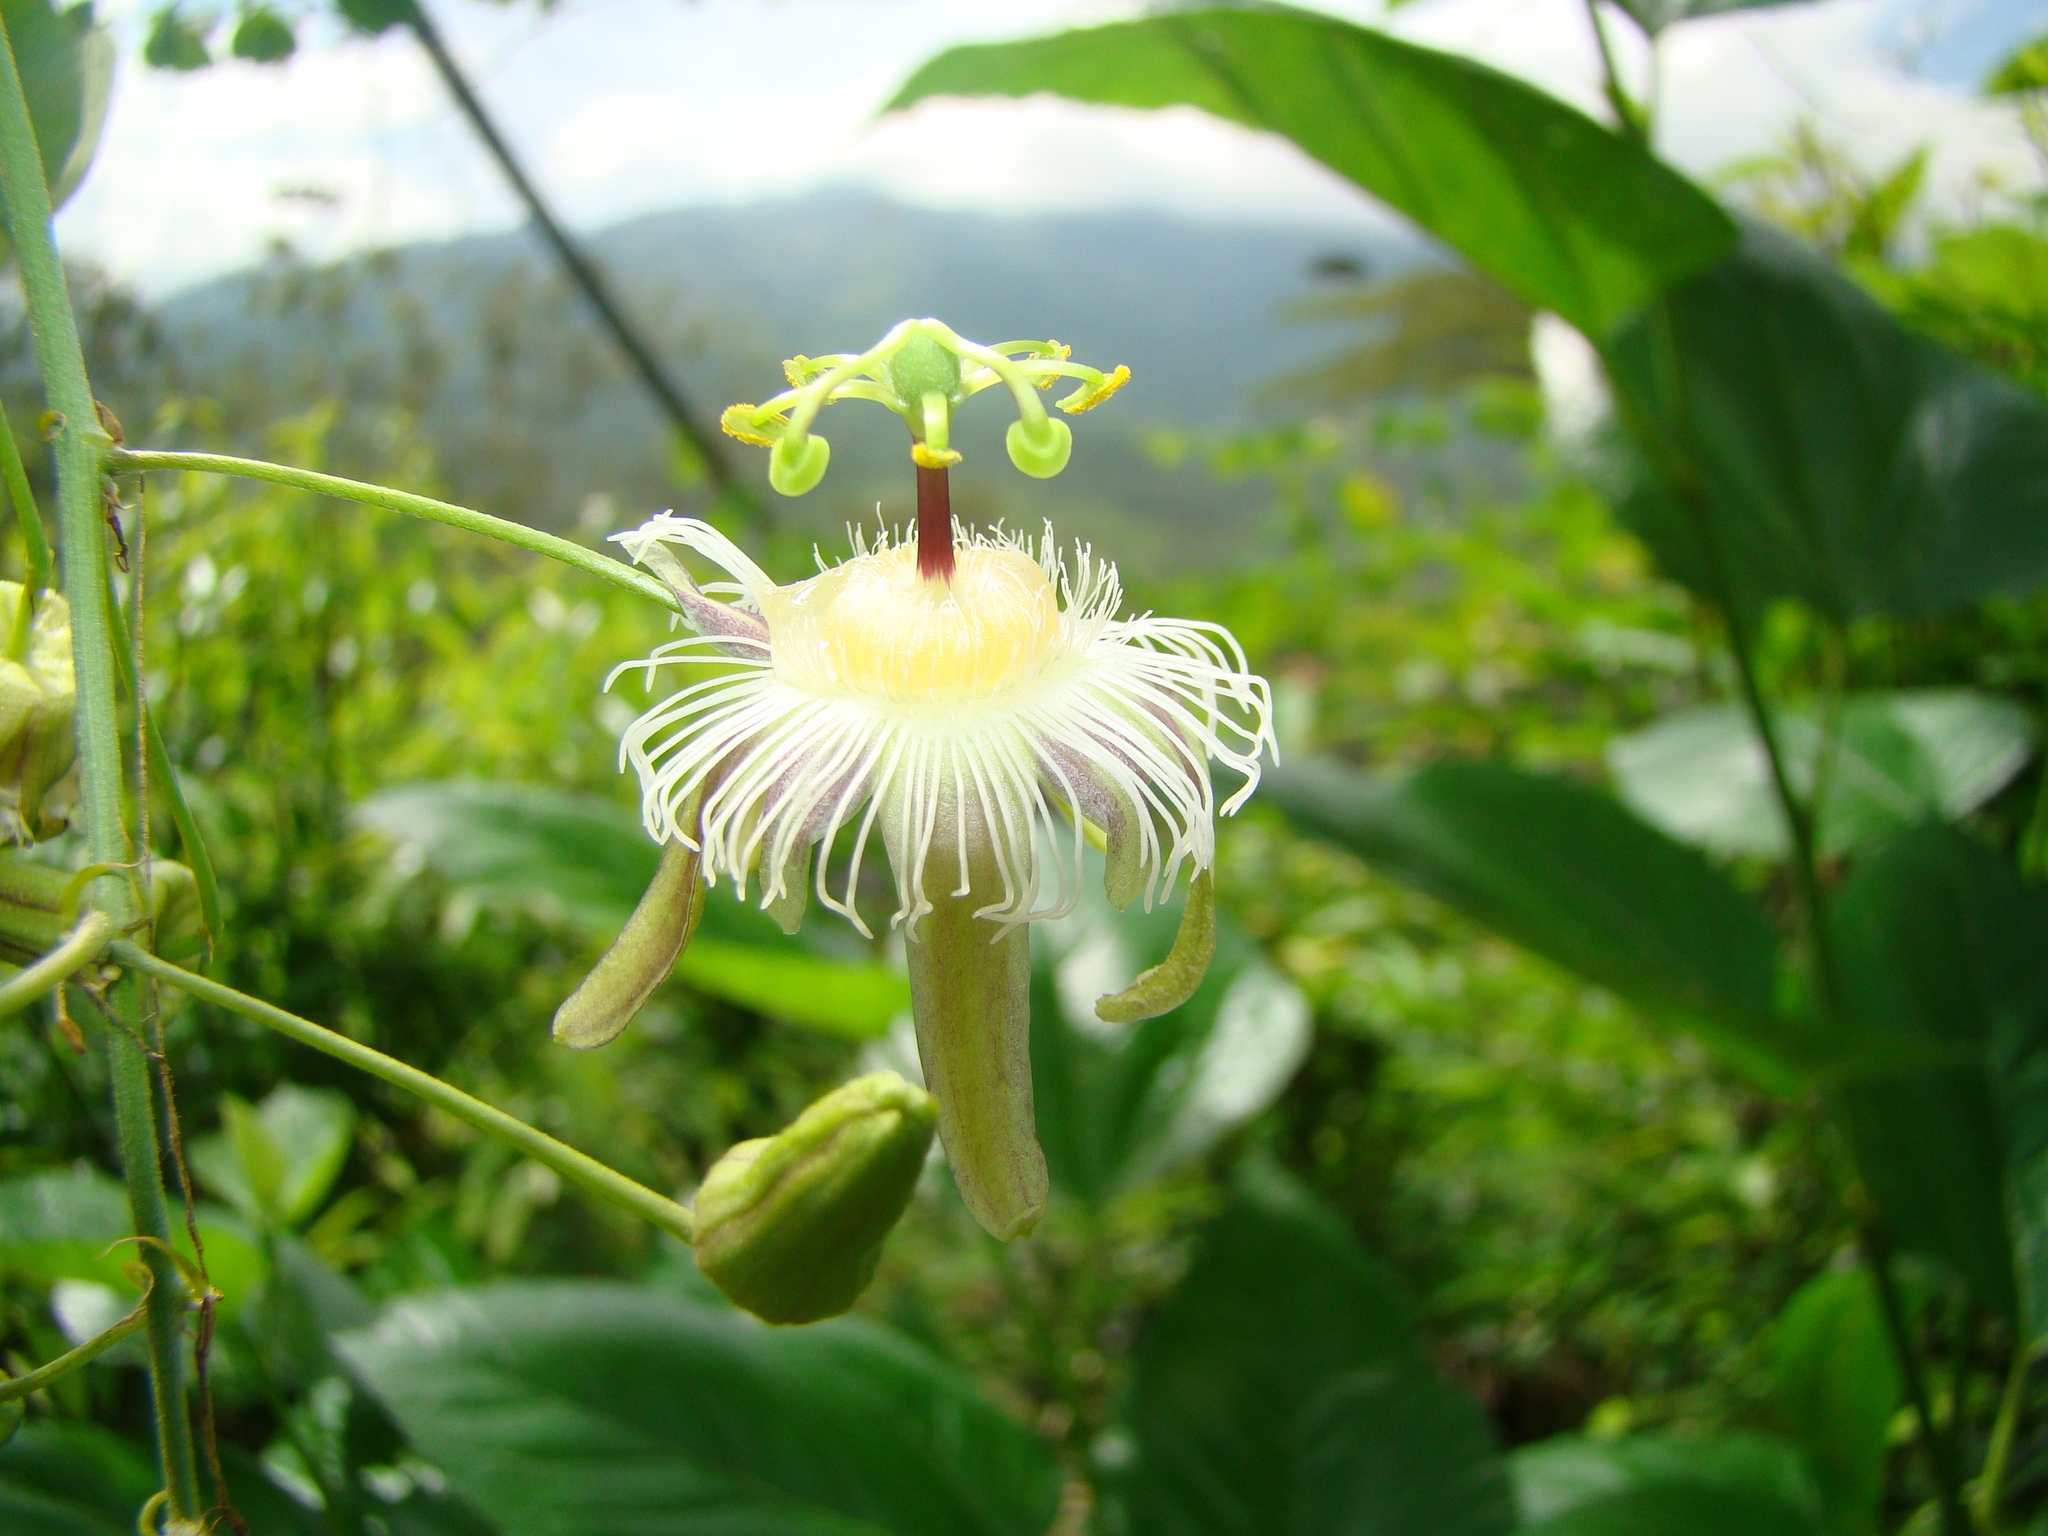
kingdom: Plantae
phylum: Tracheophyta
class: Magnoliopsida
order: Malpighiales
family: Passifloraceae
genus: Passiflora
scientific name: Passiflora quimbayensis
